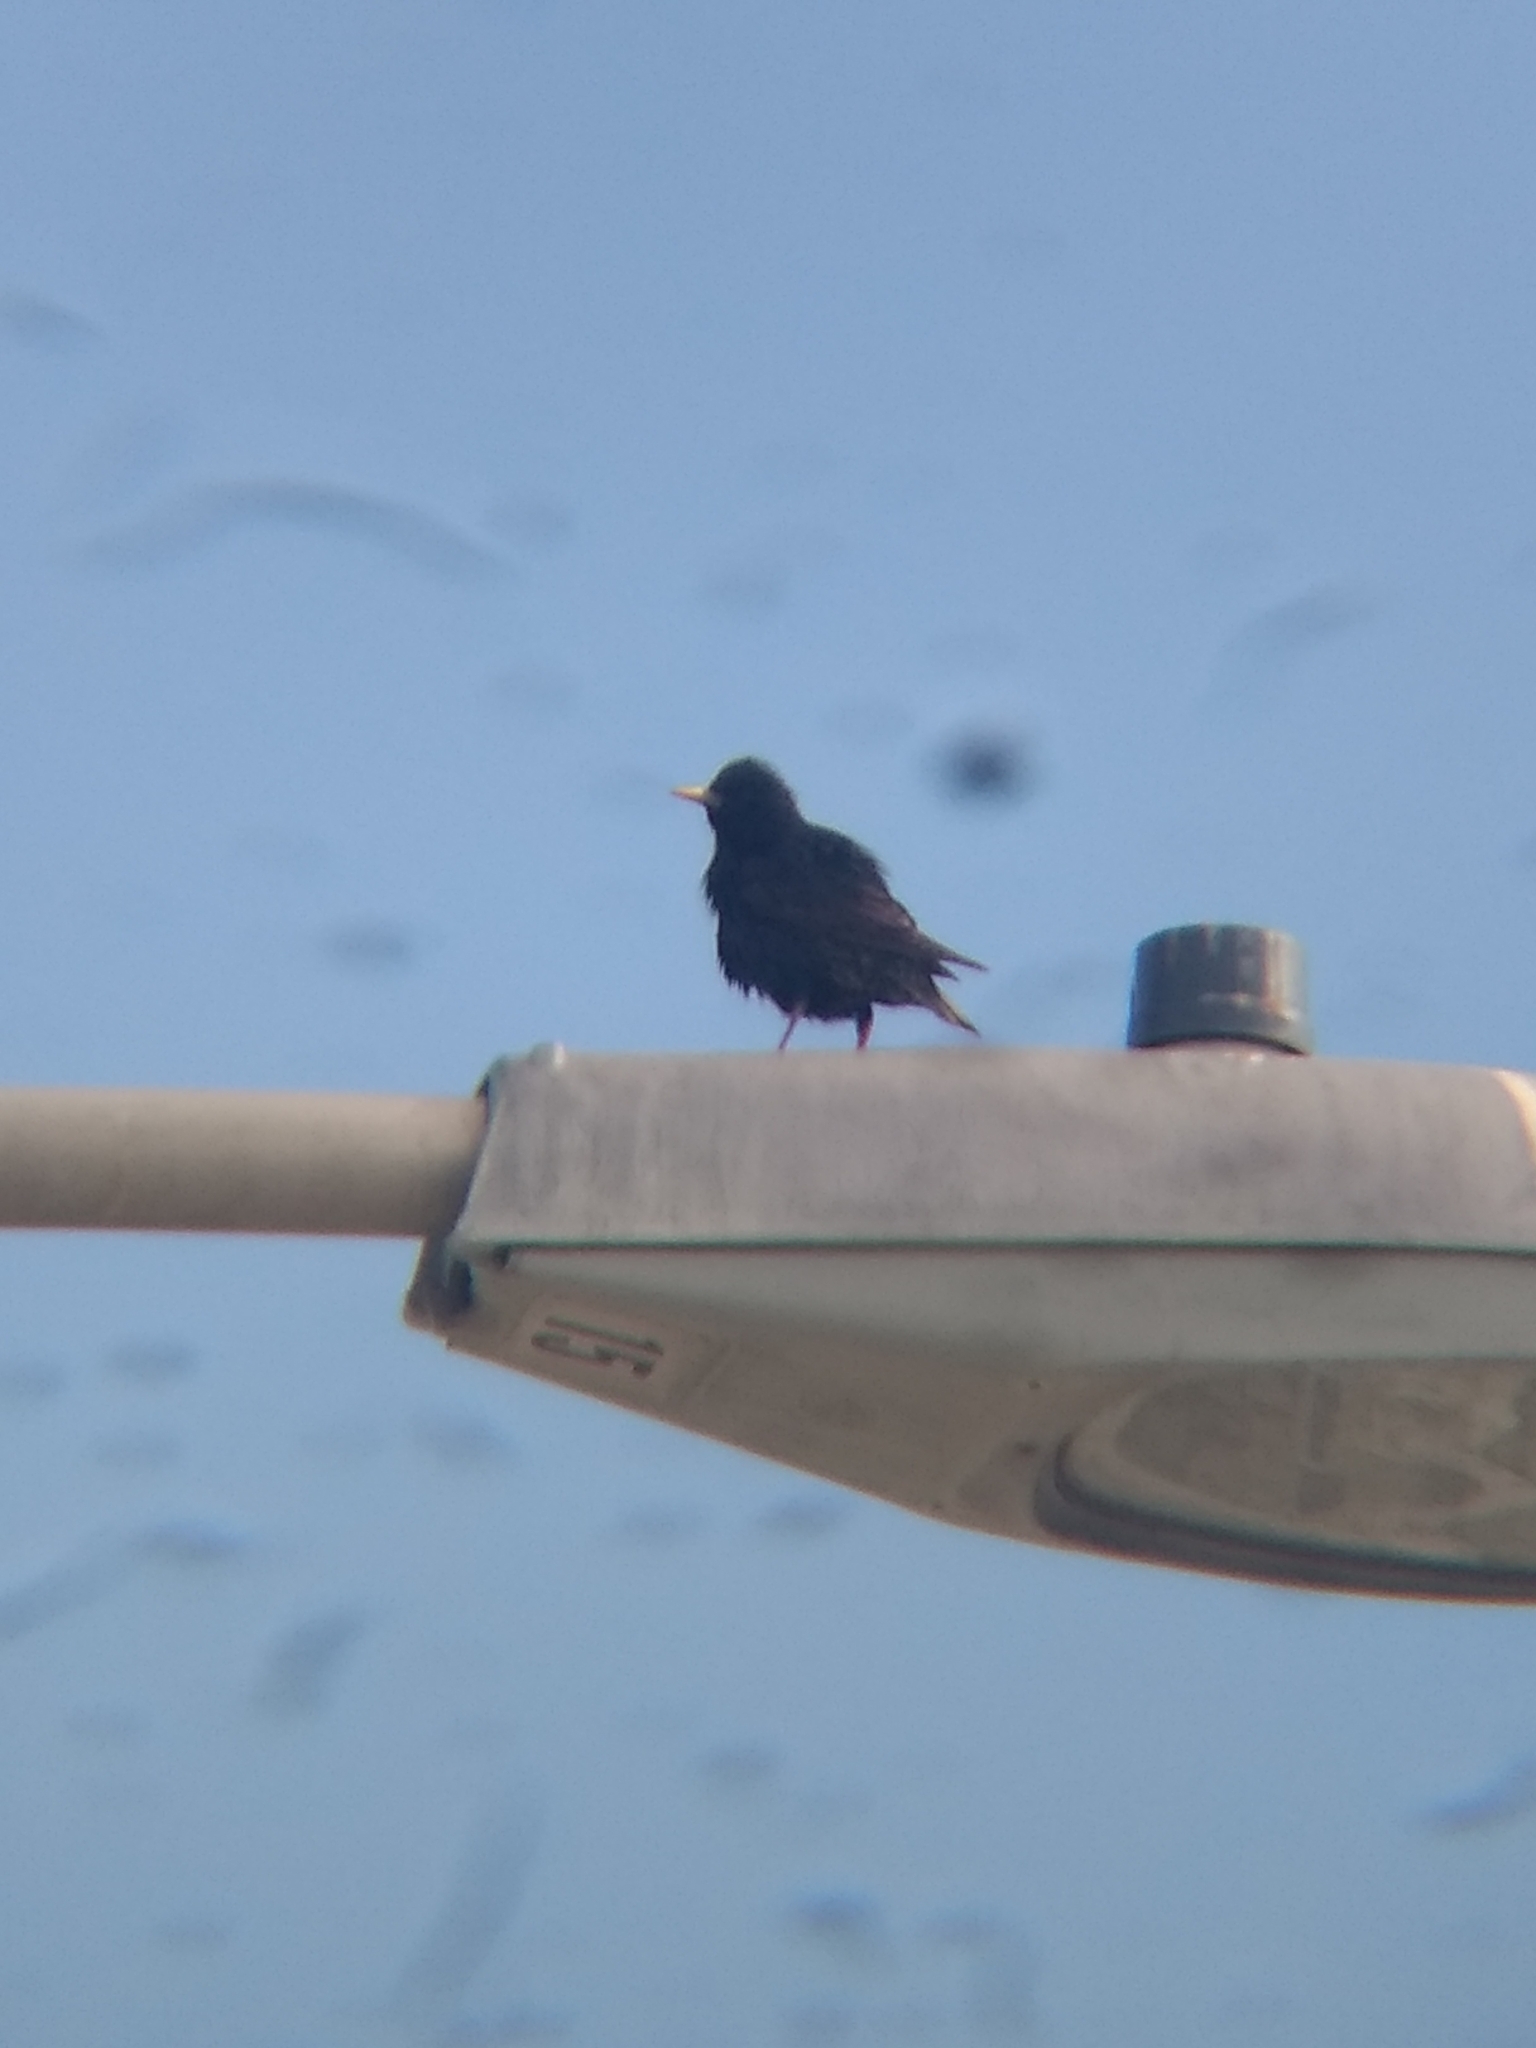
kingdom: Animalia
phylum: Chordata
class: Aves
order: Passeriformes
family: Sturnidae
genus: Sturnus
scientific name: Sturnus vulgaris
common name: Common starling
